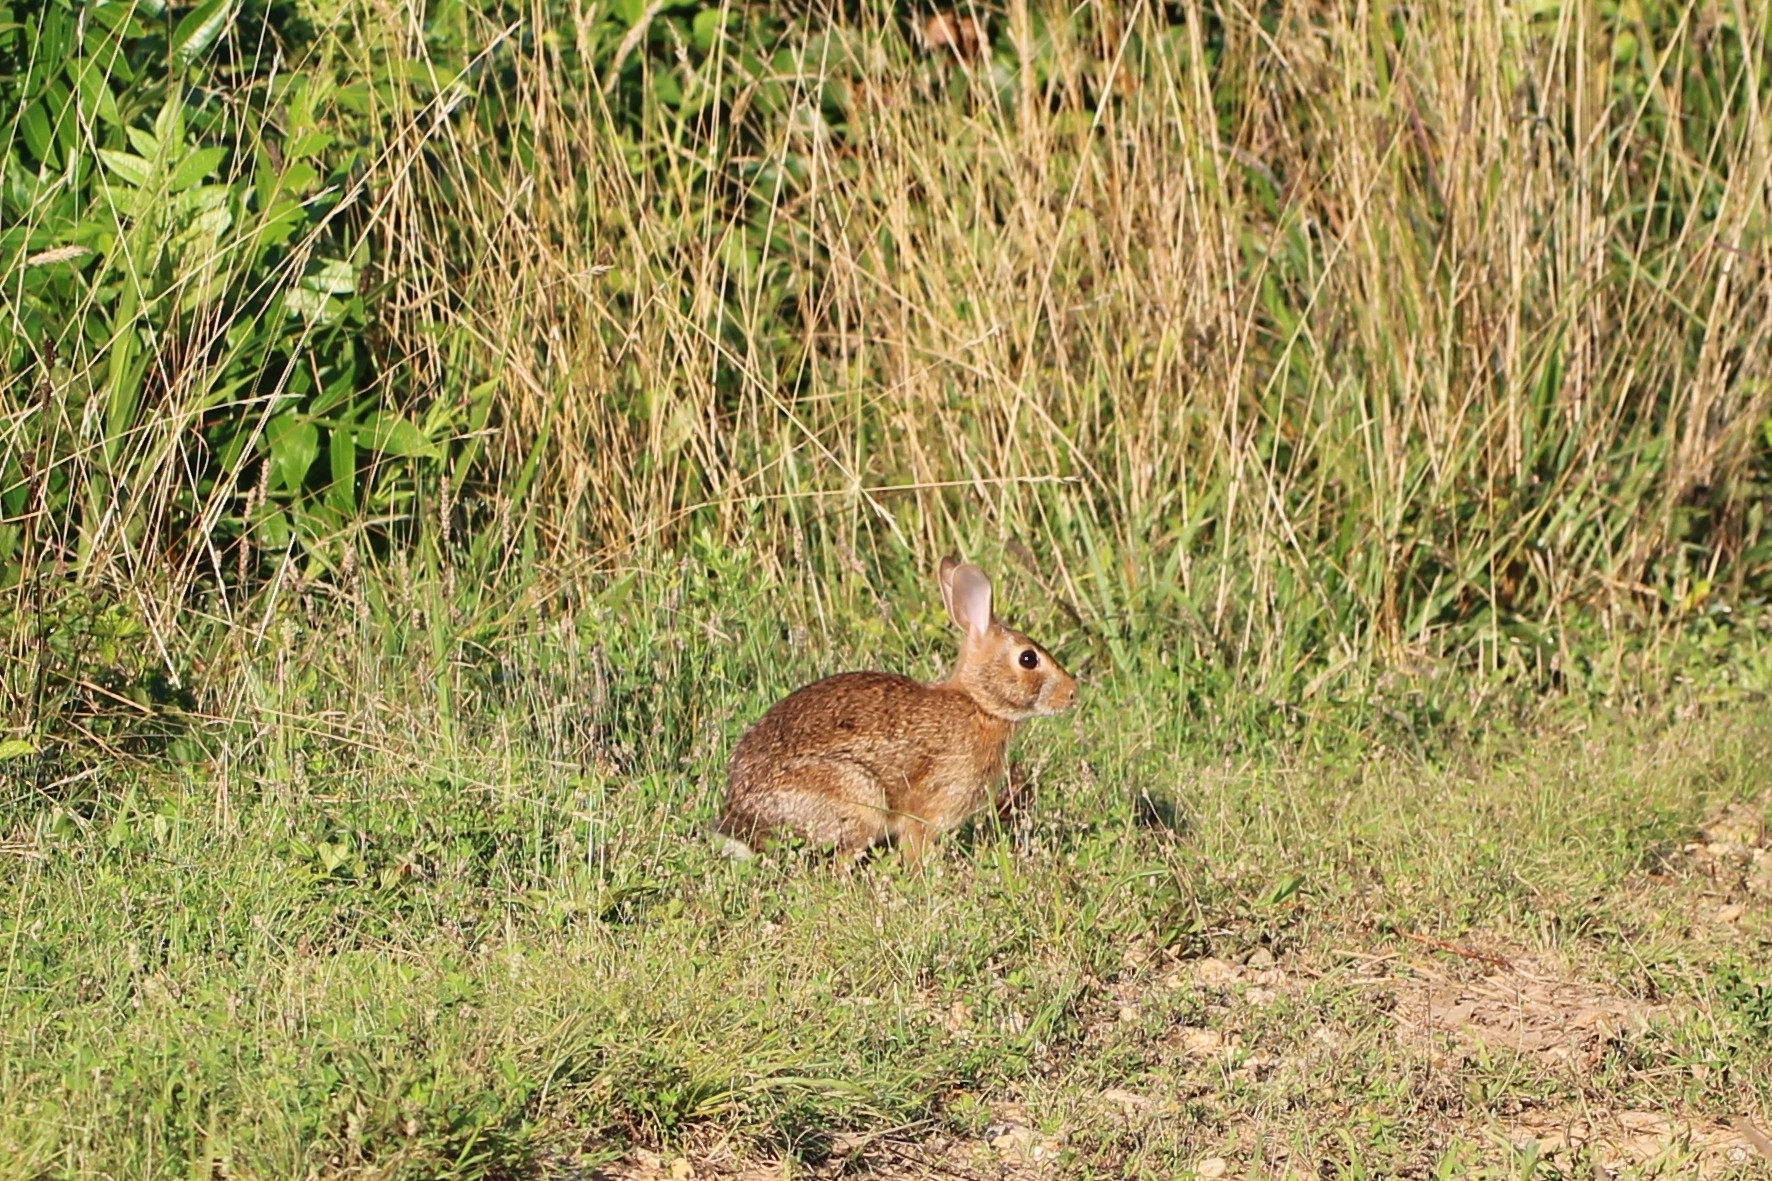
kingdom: Animalia
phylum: Chordata
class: Mammalia
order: Lagomorpha
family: Leporidae
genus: Sylvilagus
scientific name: Sylvilagus floridanus
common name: Eastern cottontail
